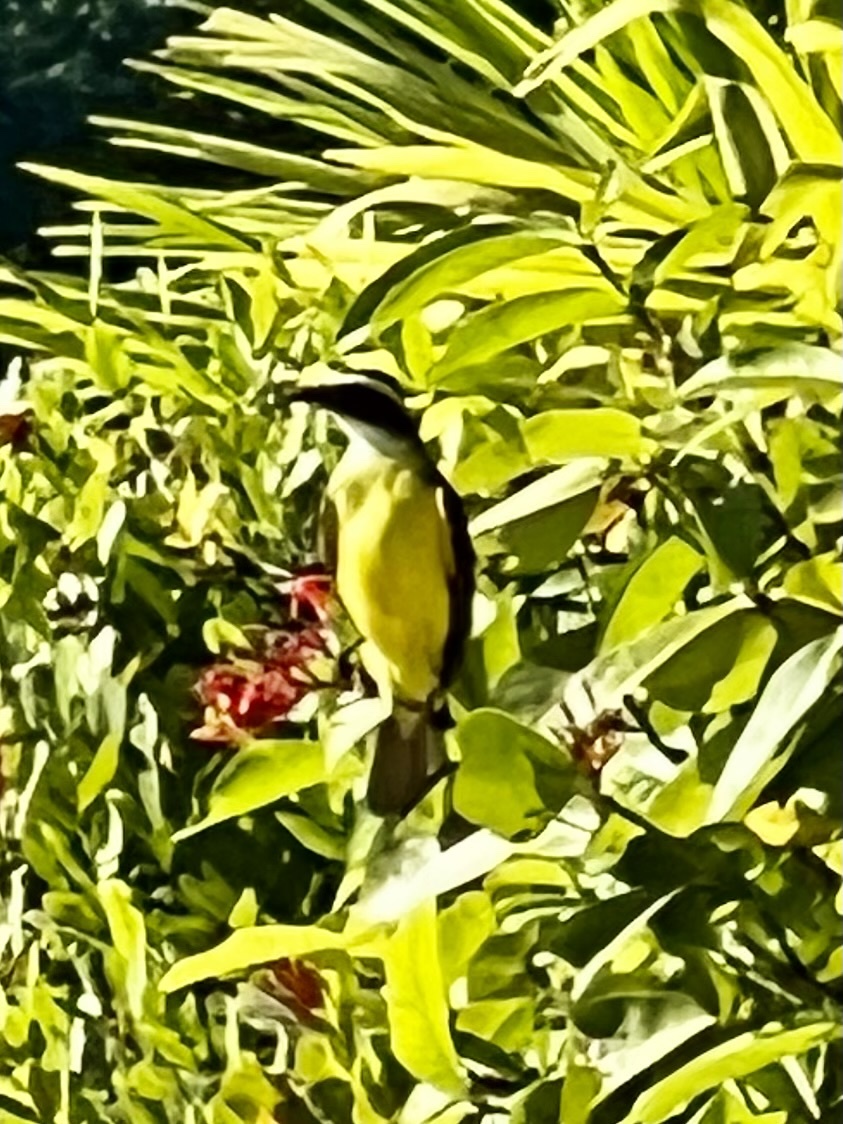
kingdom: Animalia
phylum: Chordata
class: Aves
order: Passeriformes
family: Tyrannidae
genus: Myiozetetes
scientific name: Myiozetetes similis
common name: Social flycatcher
